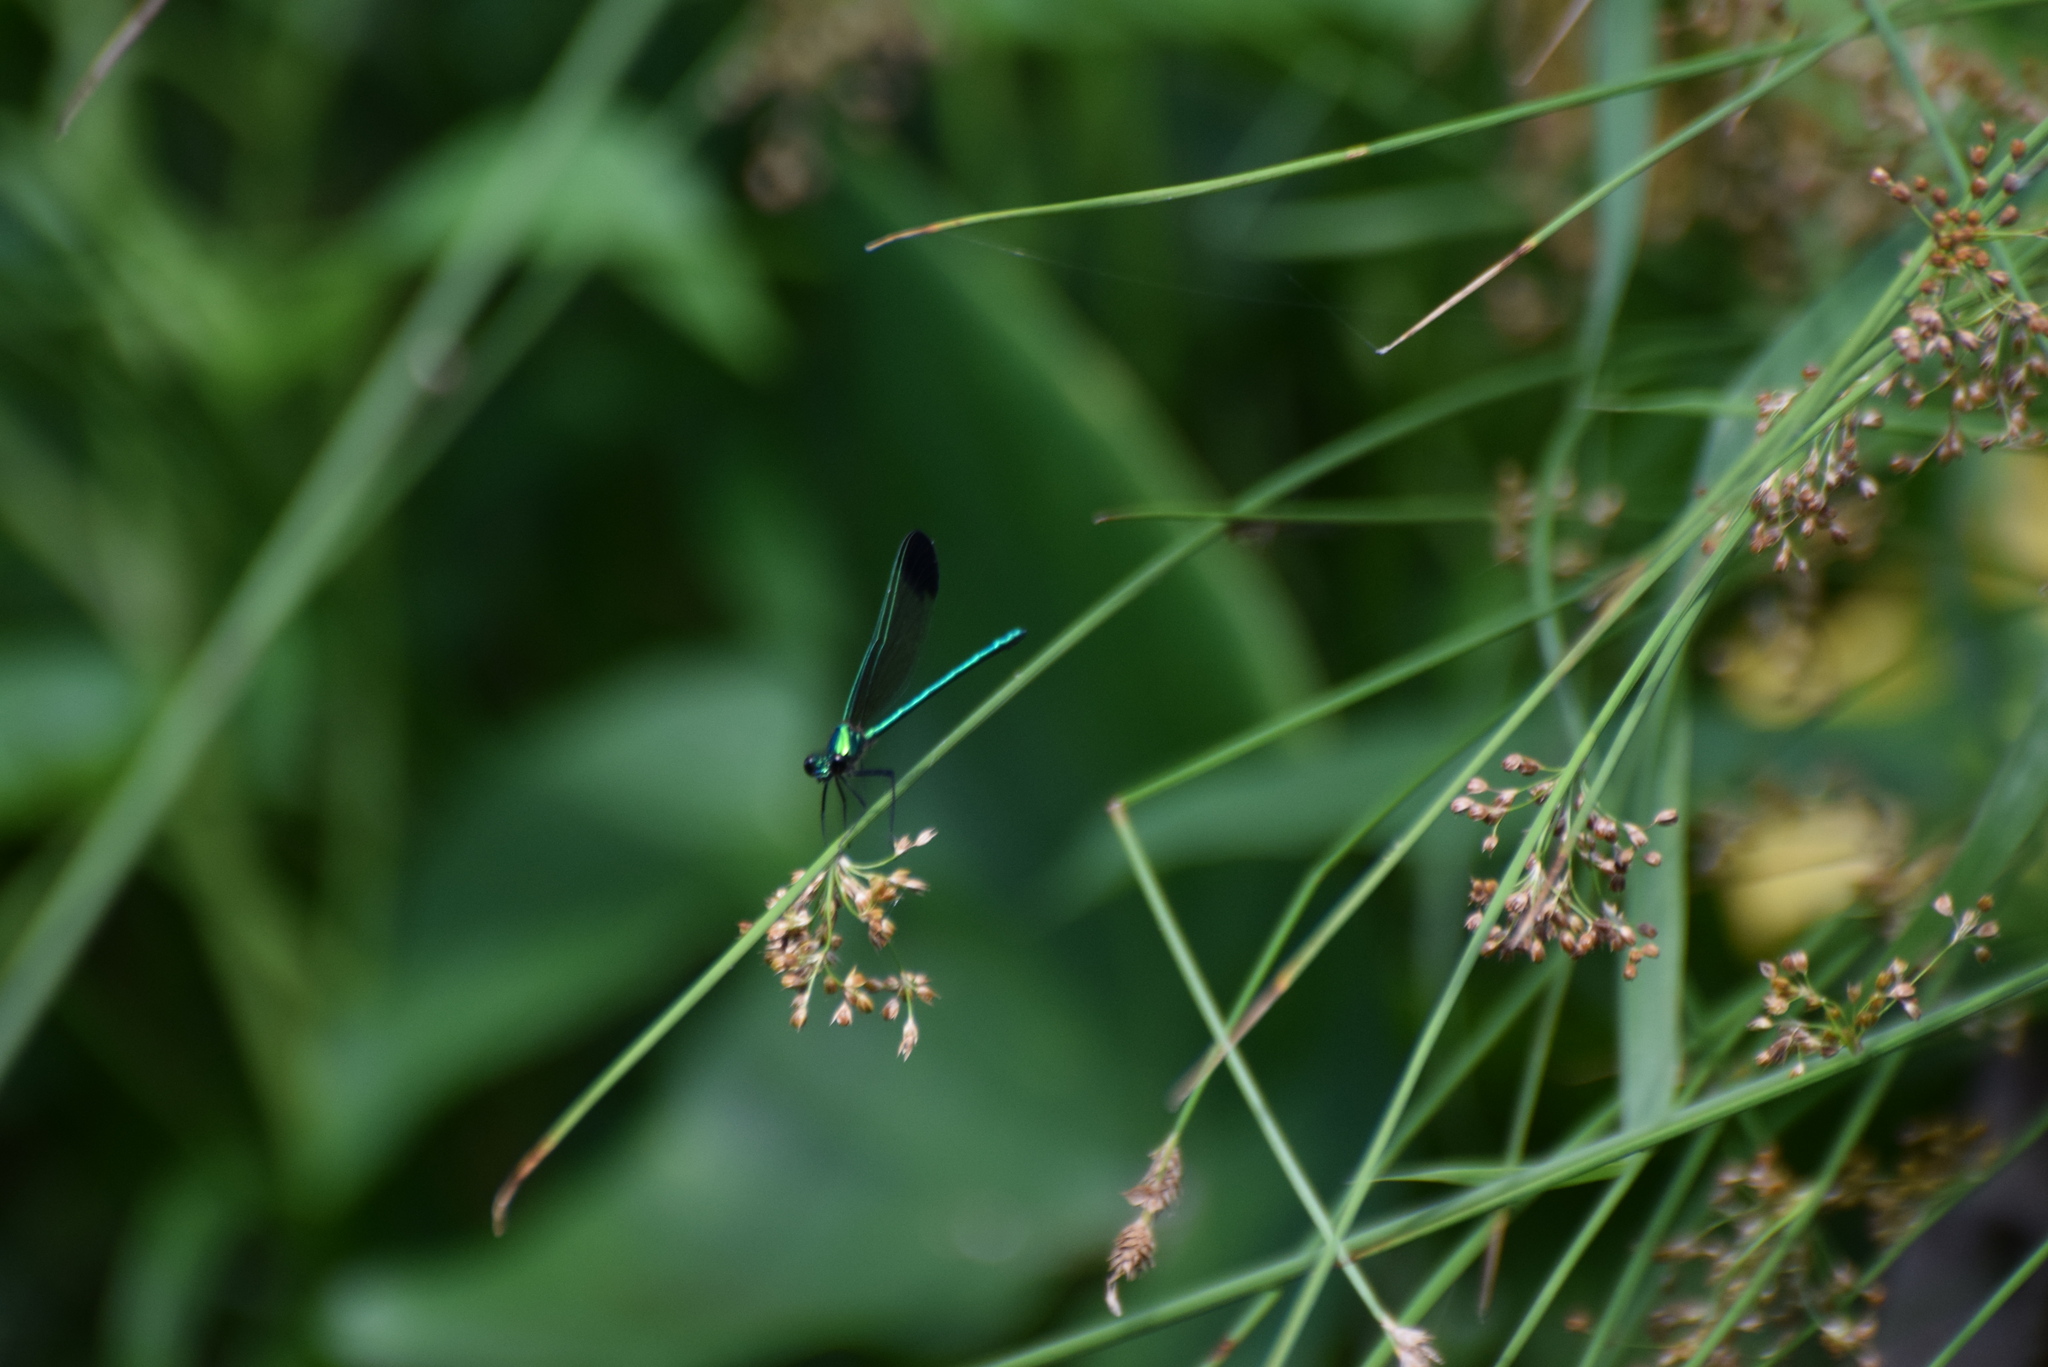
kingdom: Animalia
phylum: Arthropoda
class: Insecta
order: Odonata
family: Calopterygidae
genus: Calopteryx
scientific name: Calopteryx dimidiata
